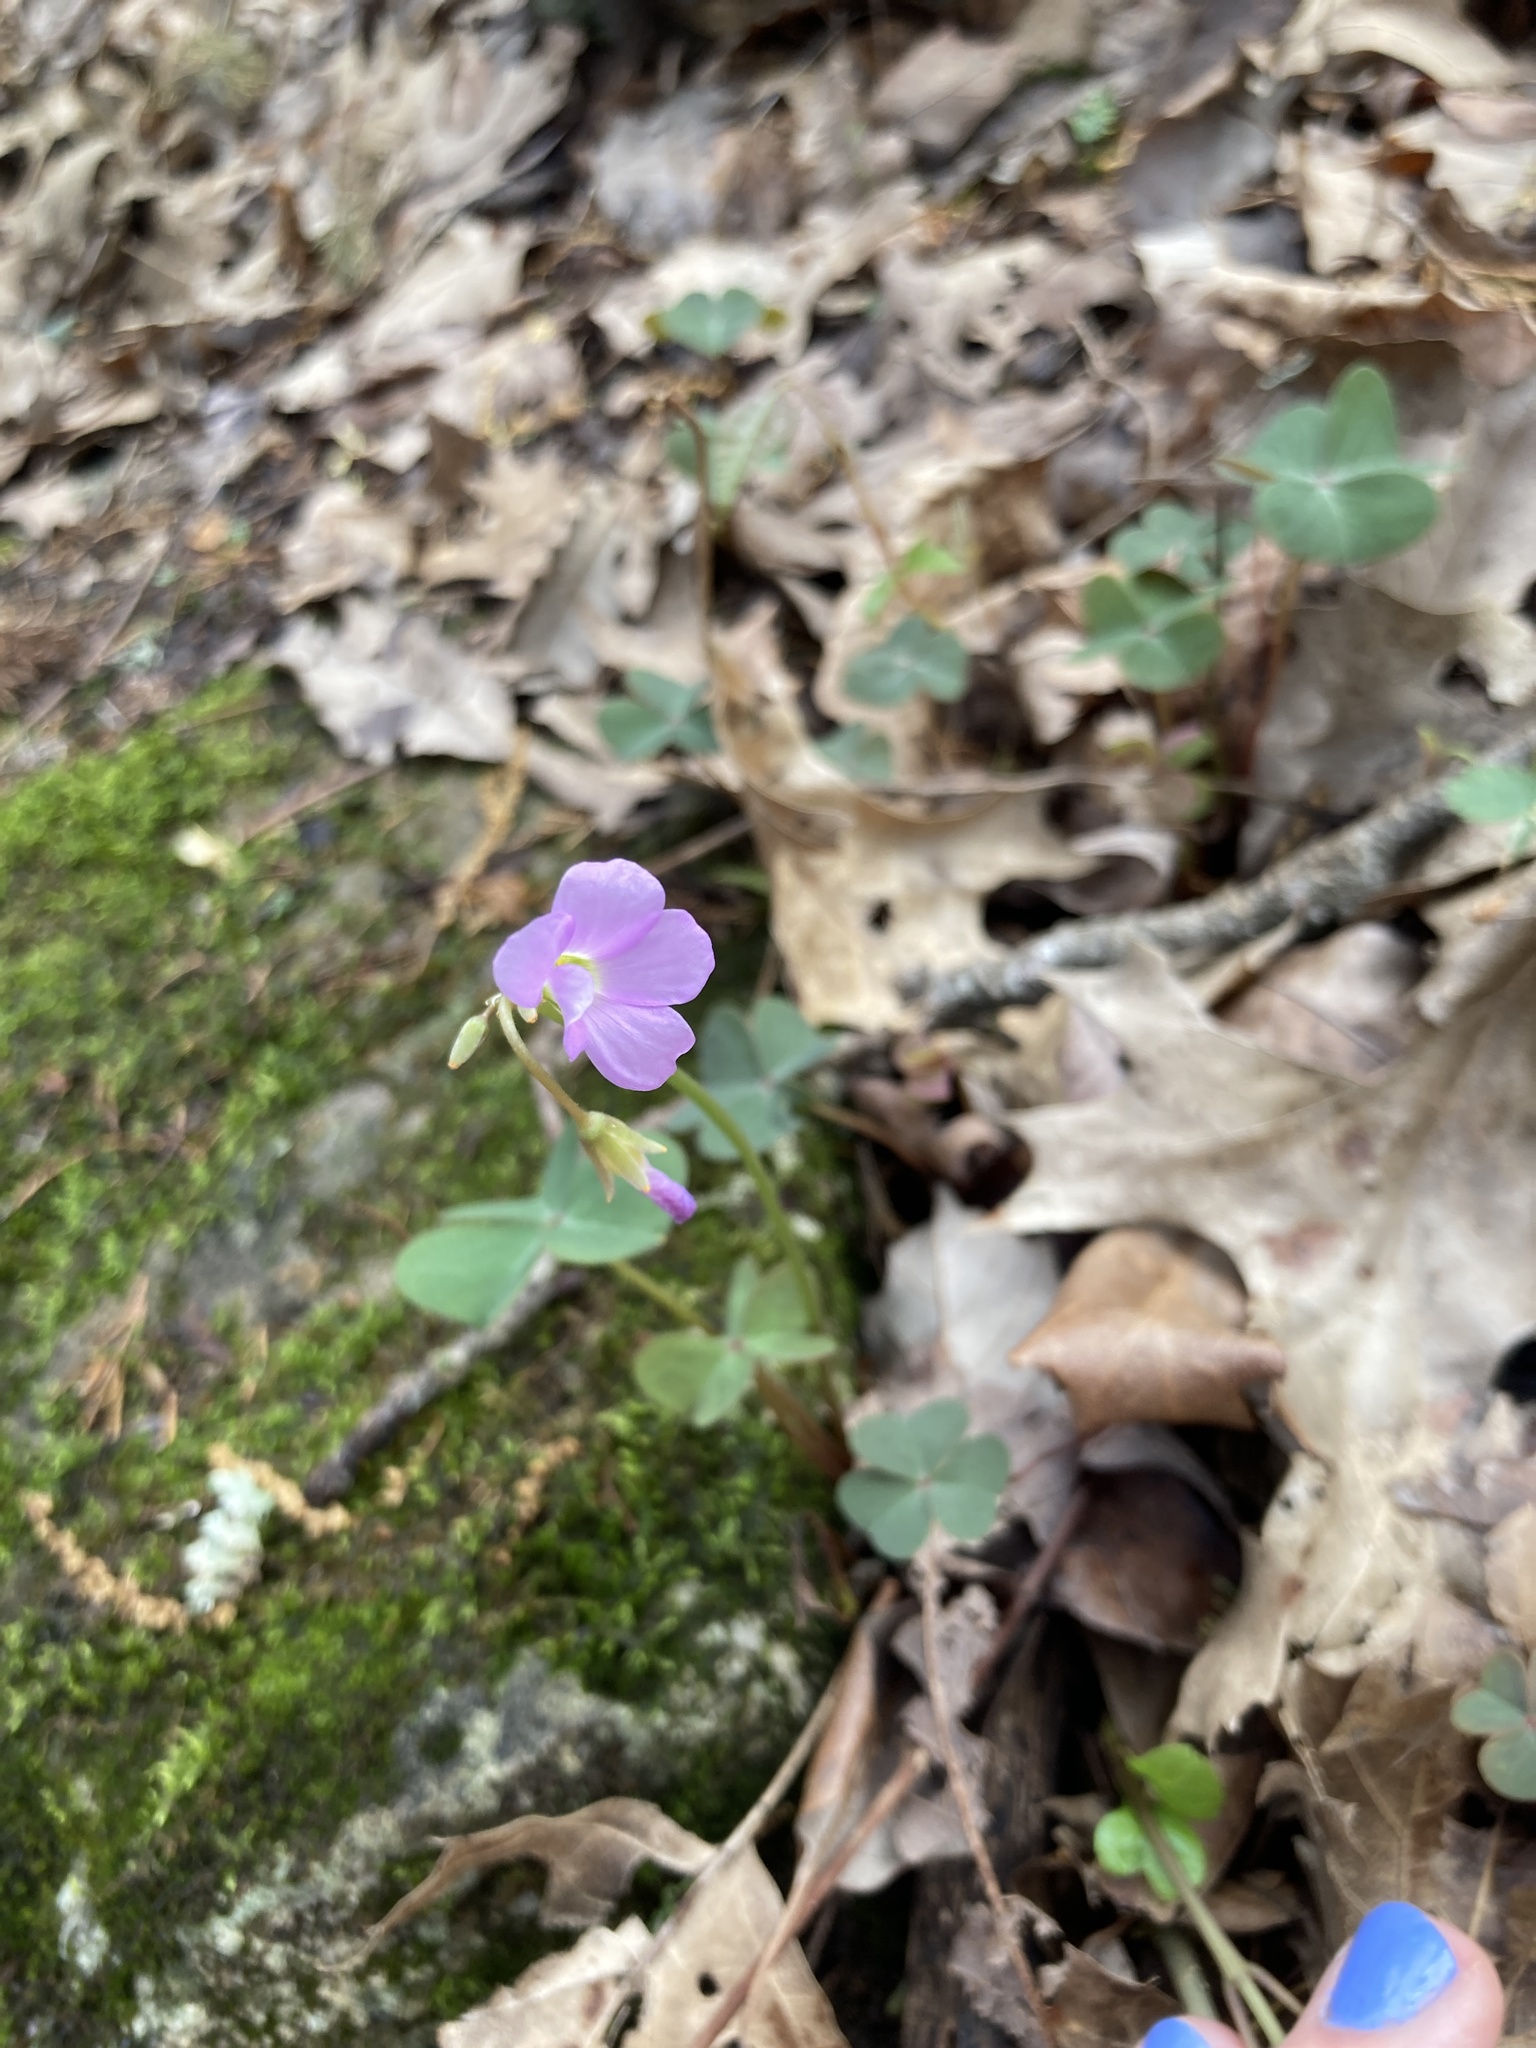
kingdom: Plantae
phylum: Tracheophyta
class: Magnoliopsida
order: Oxalidales
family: Oxalidaceae
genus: Oxalis
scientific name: Oxalis violacea
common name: Violet wood-sorrel
